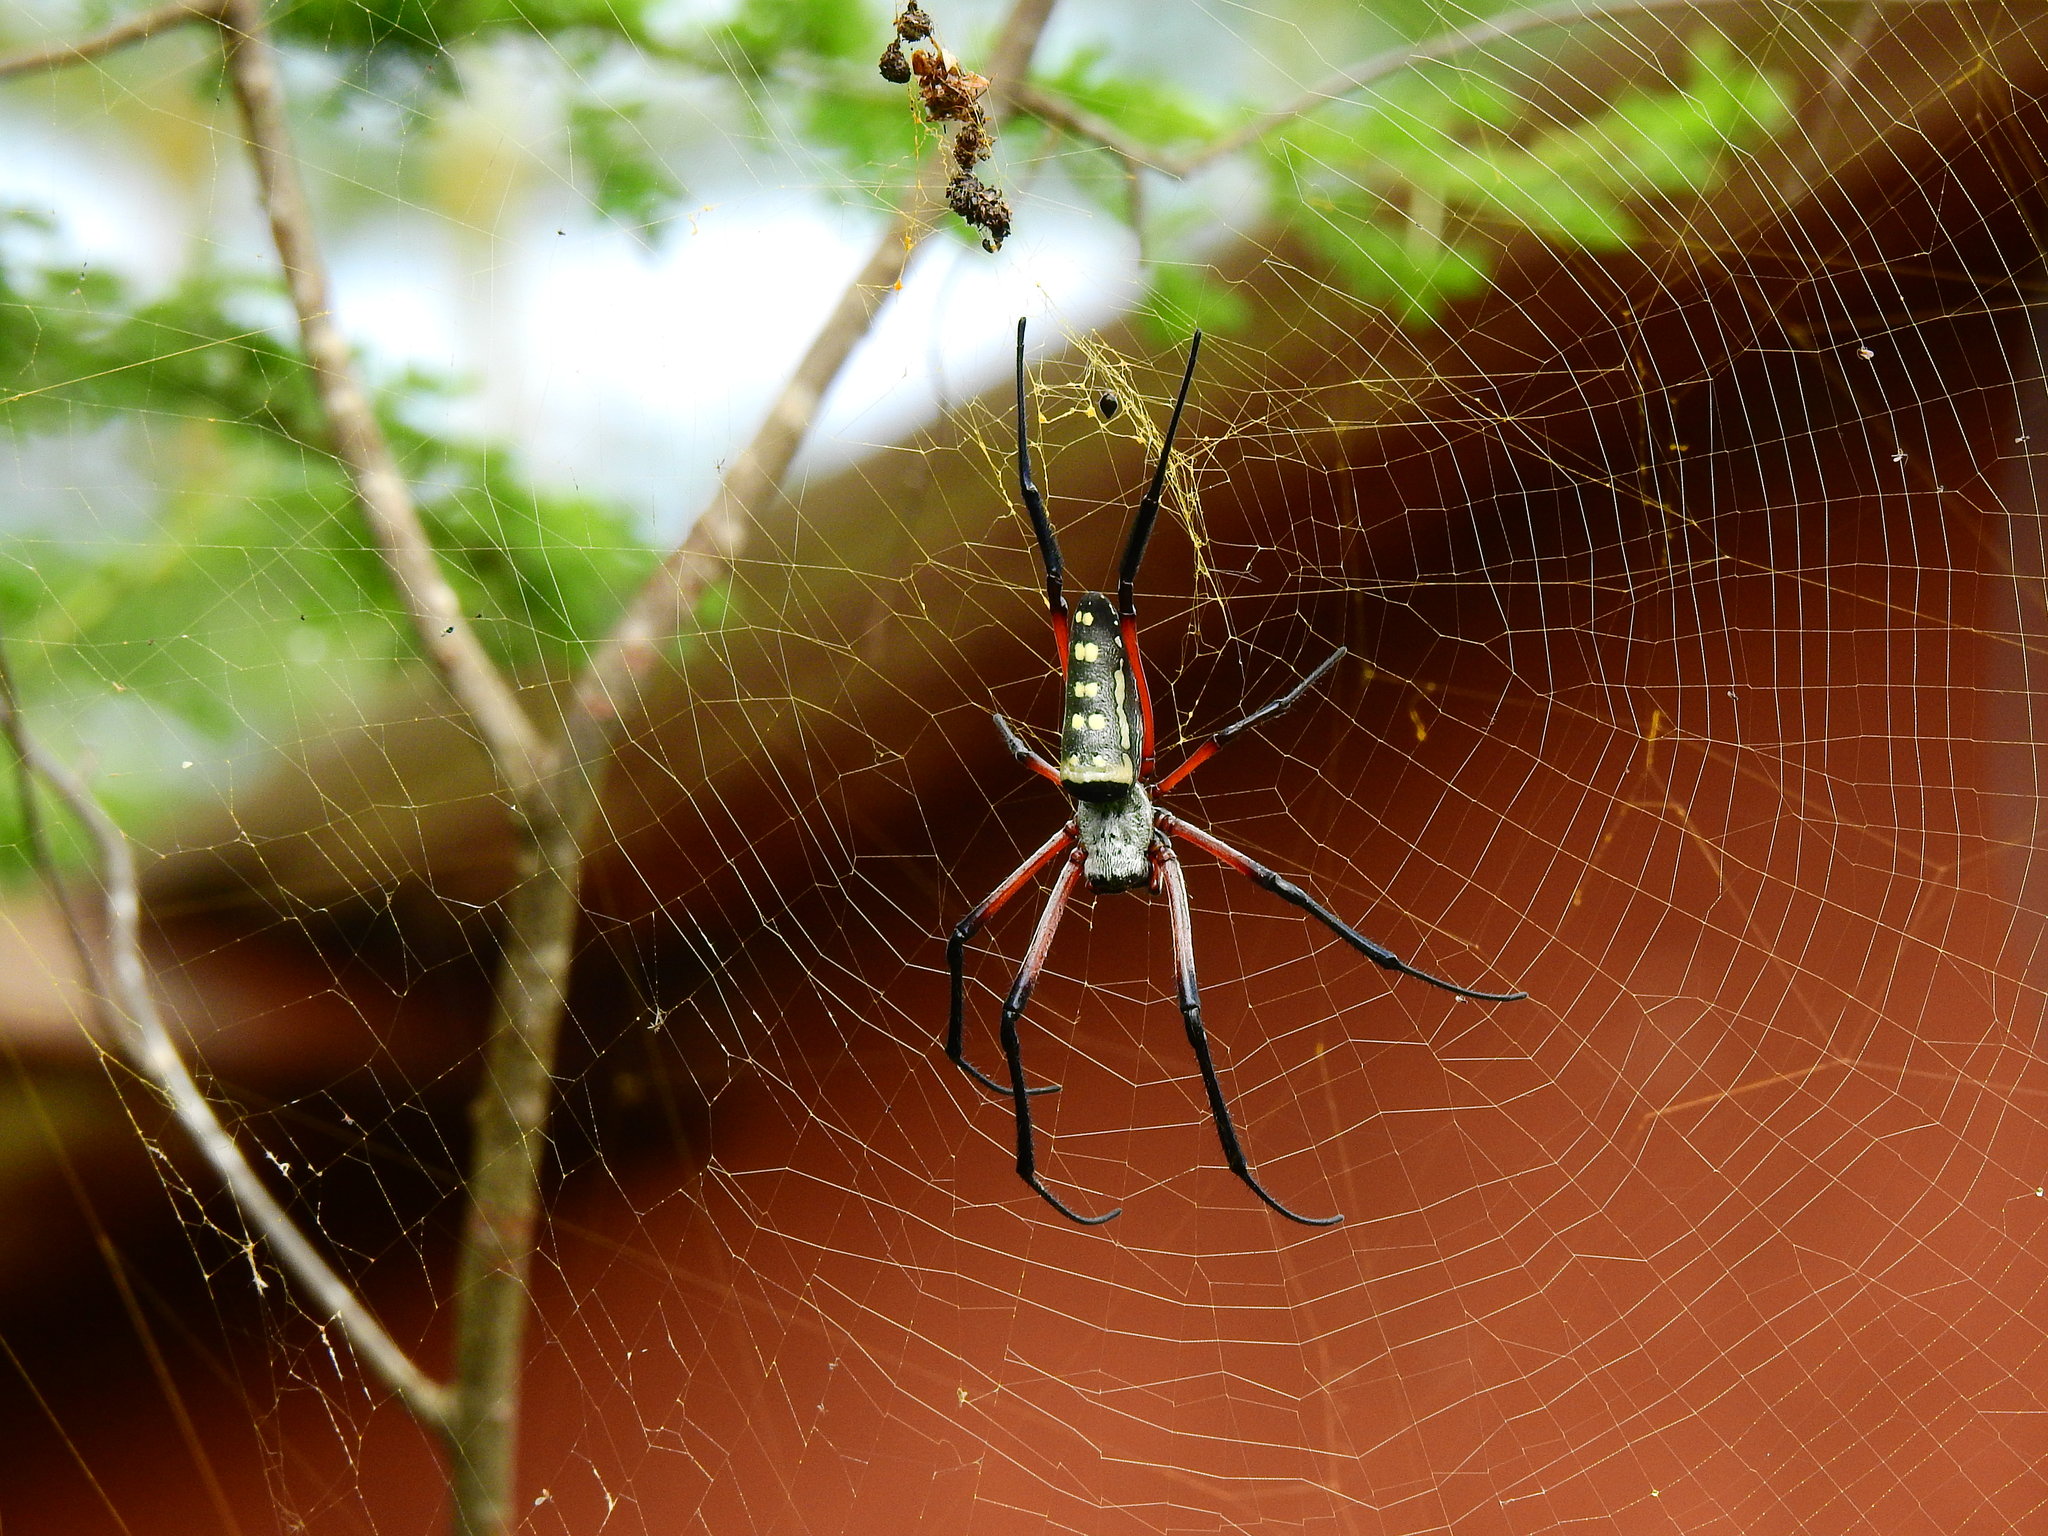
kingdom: Animalia
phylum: Arthropoda
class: Arachnida
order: Araneae
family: Araneidae
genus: Trichonephila
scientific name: Trichonephila sumptuosa
